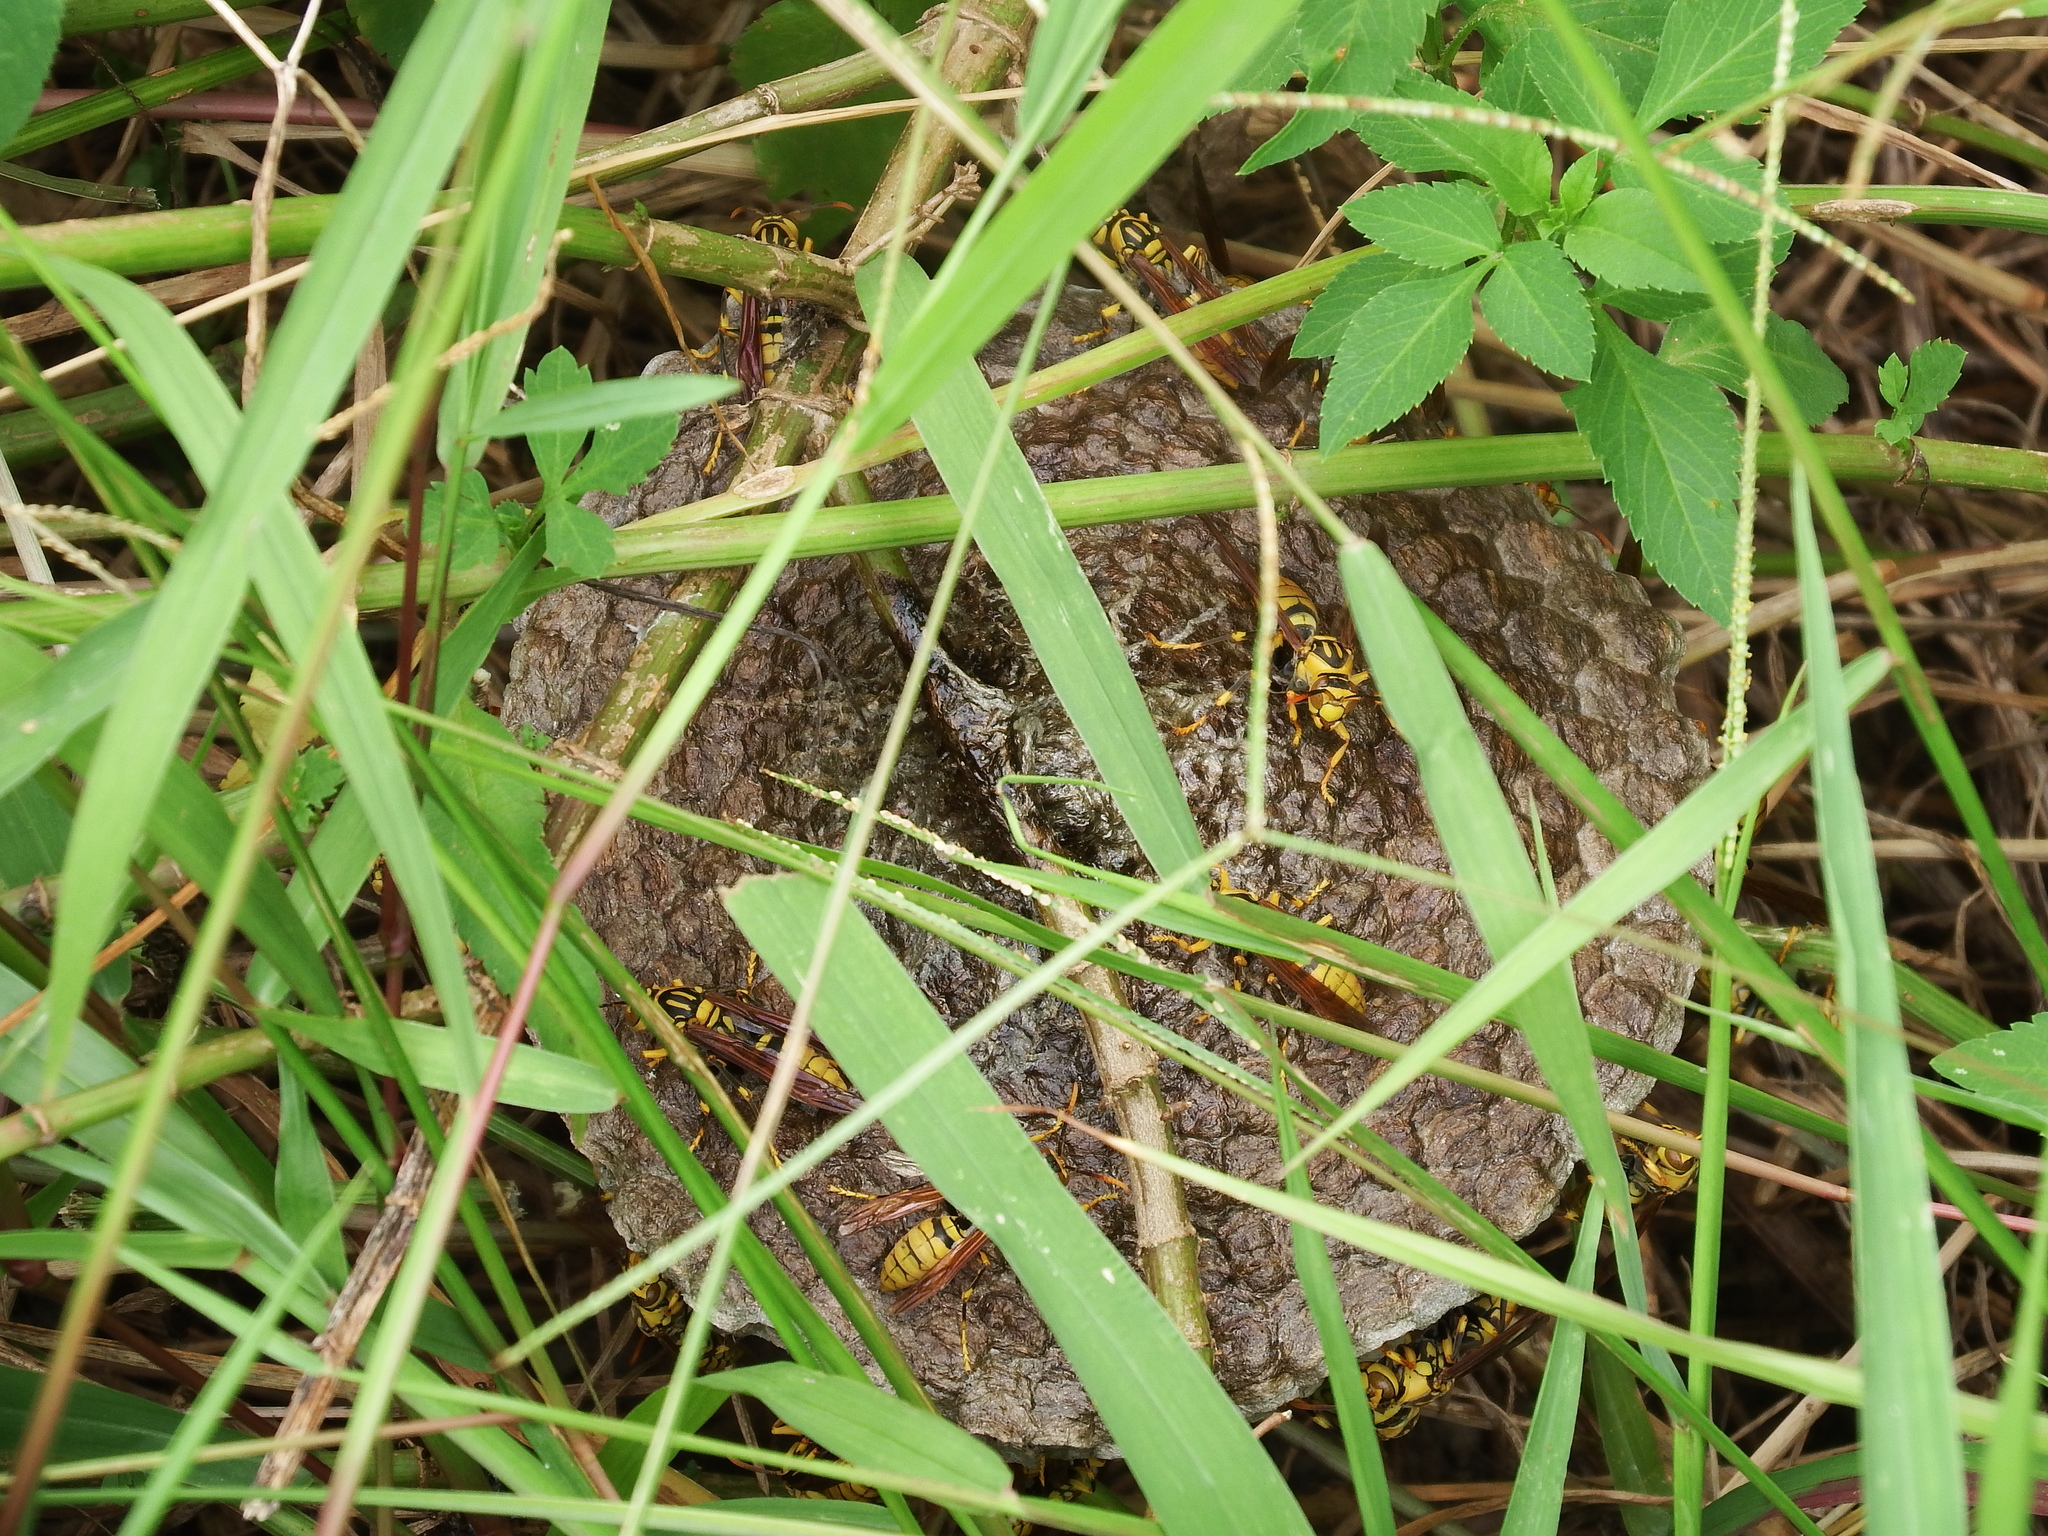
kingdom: Animalia
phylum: Arthropoda
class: Insecta
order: Hymenoptera
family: Eumenidae
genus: Polistes
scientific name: Polistes rothneyi
